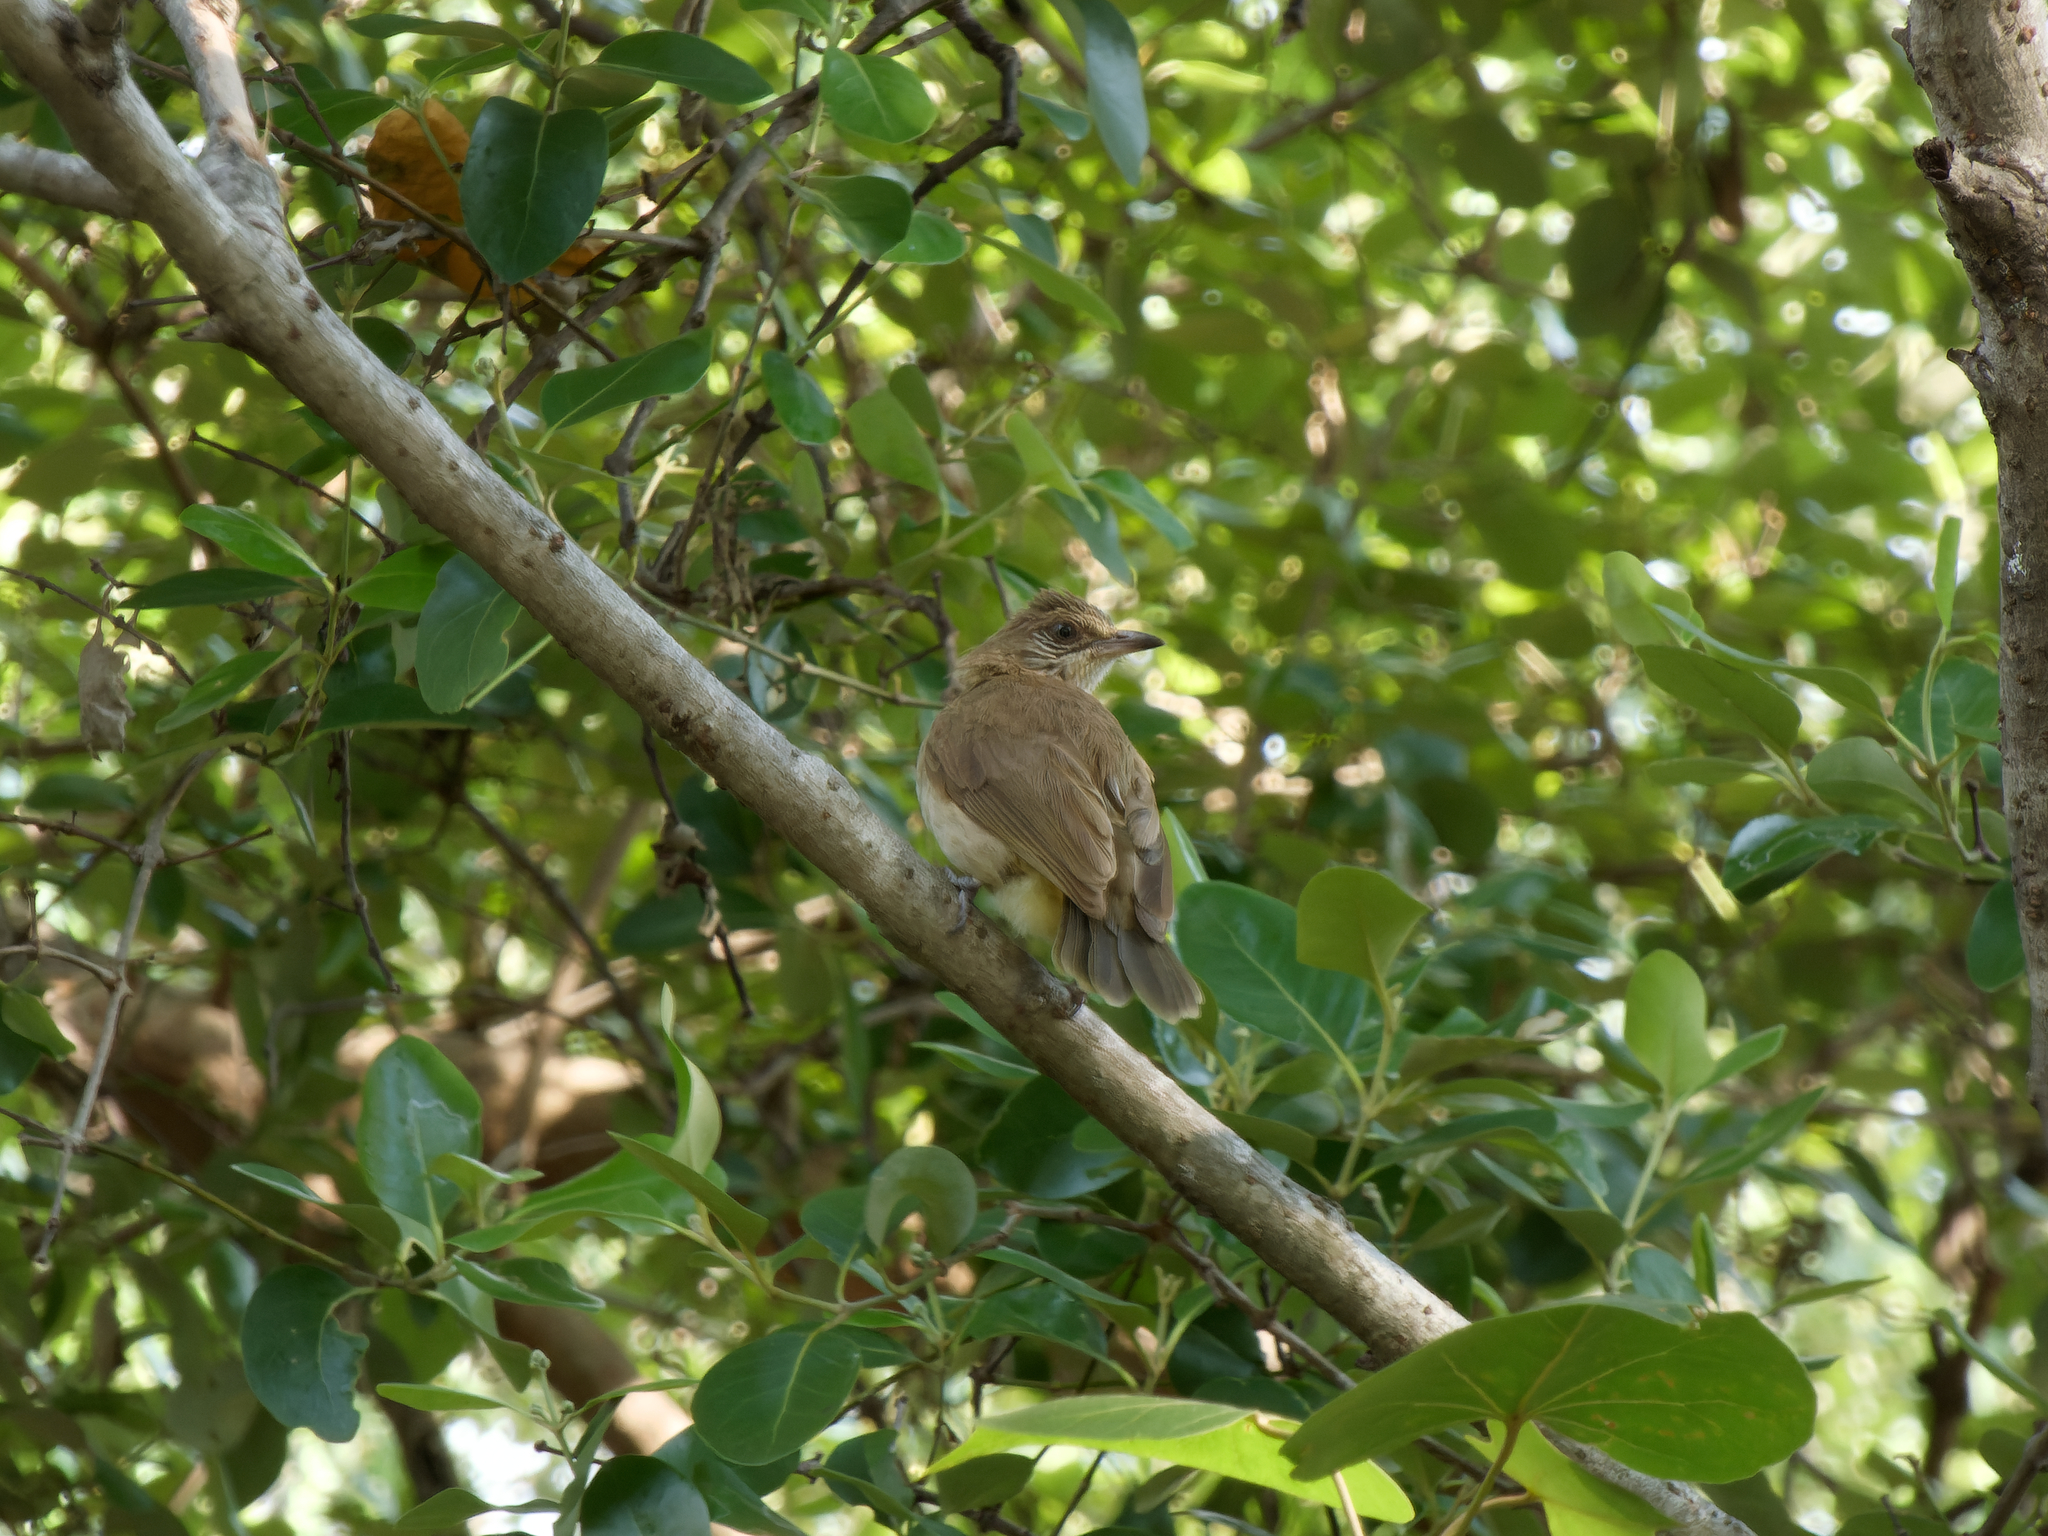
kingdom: Animalia
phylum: Chordata
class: Aves
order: Passeriformes
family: Pycnonotidae
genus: Pycnonotus
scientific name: Pycnonotus blanfordi
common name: Streak-eared bulbul
